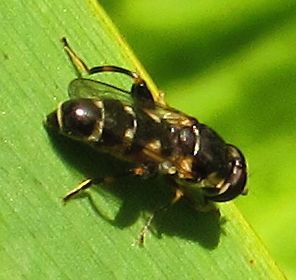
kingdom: Animalia
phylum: Arthropoda
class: Insecta
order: Diptera
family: Syrphidae
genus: Syritta
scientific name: Syritta pipiens
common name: Hover fly
